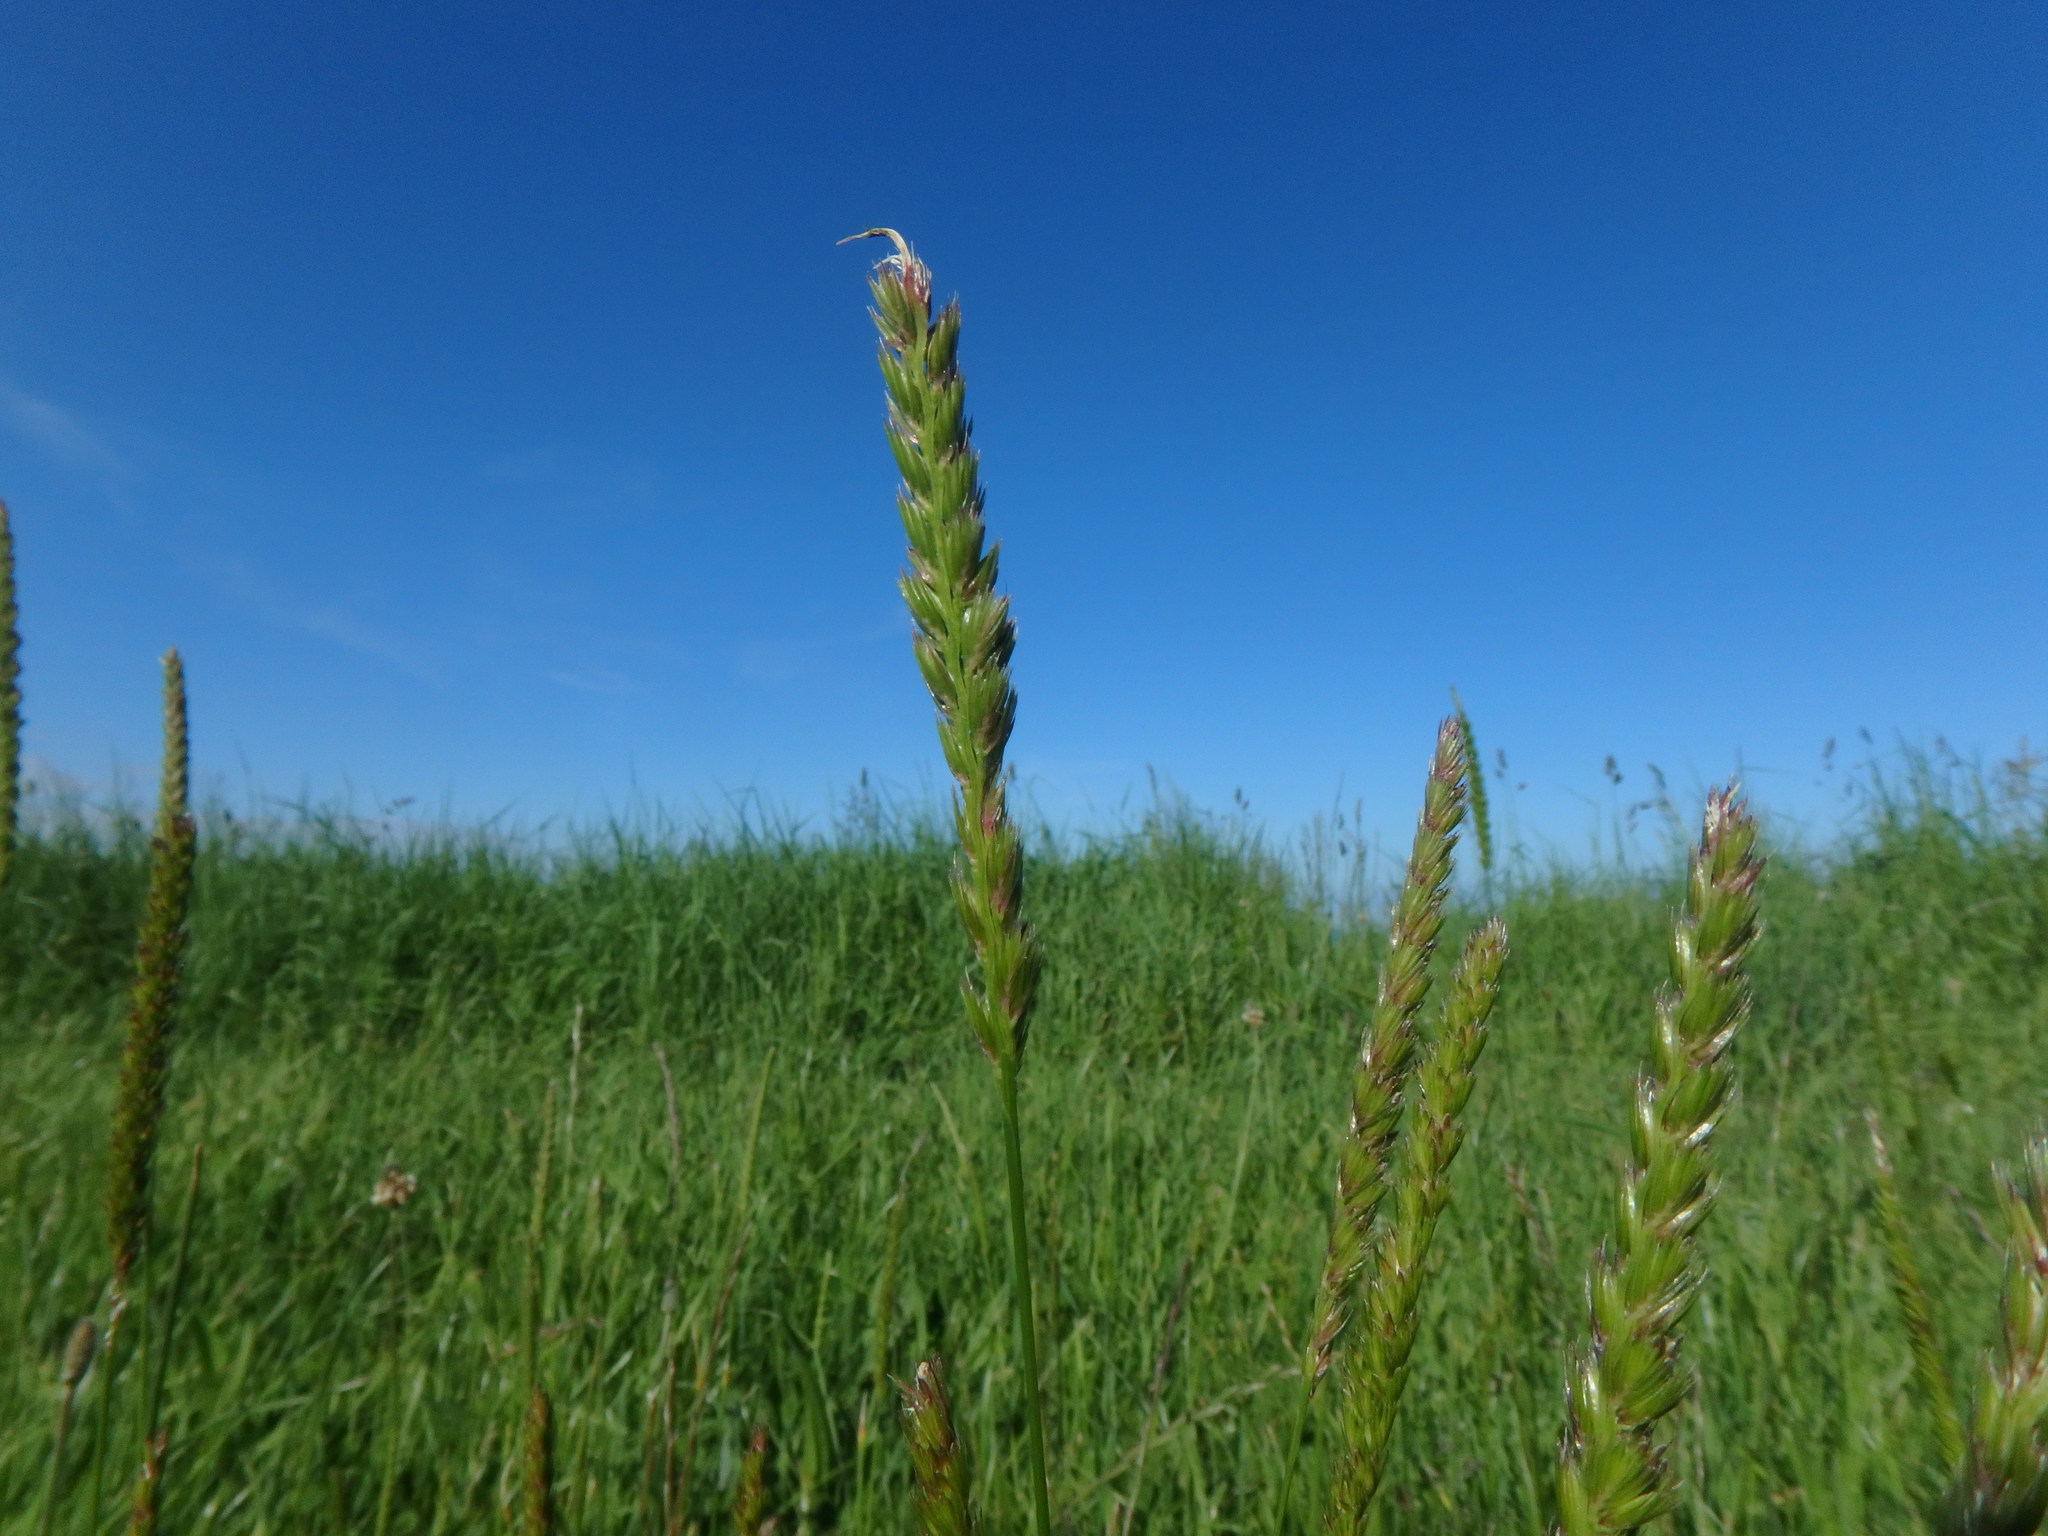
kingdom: Plantae
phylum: Tracheophyta
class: Liliopsida
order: Poales
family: Poaceae
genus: Cynosurus
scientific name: Cynosurus cristatus
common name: Crested dog's-tail
